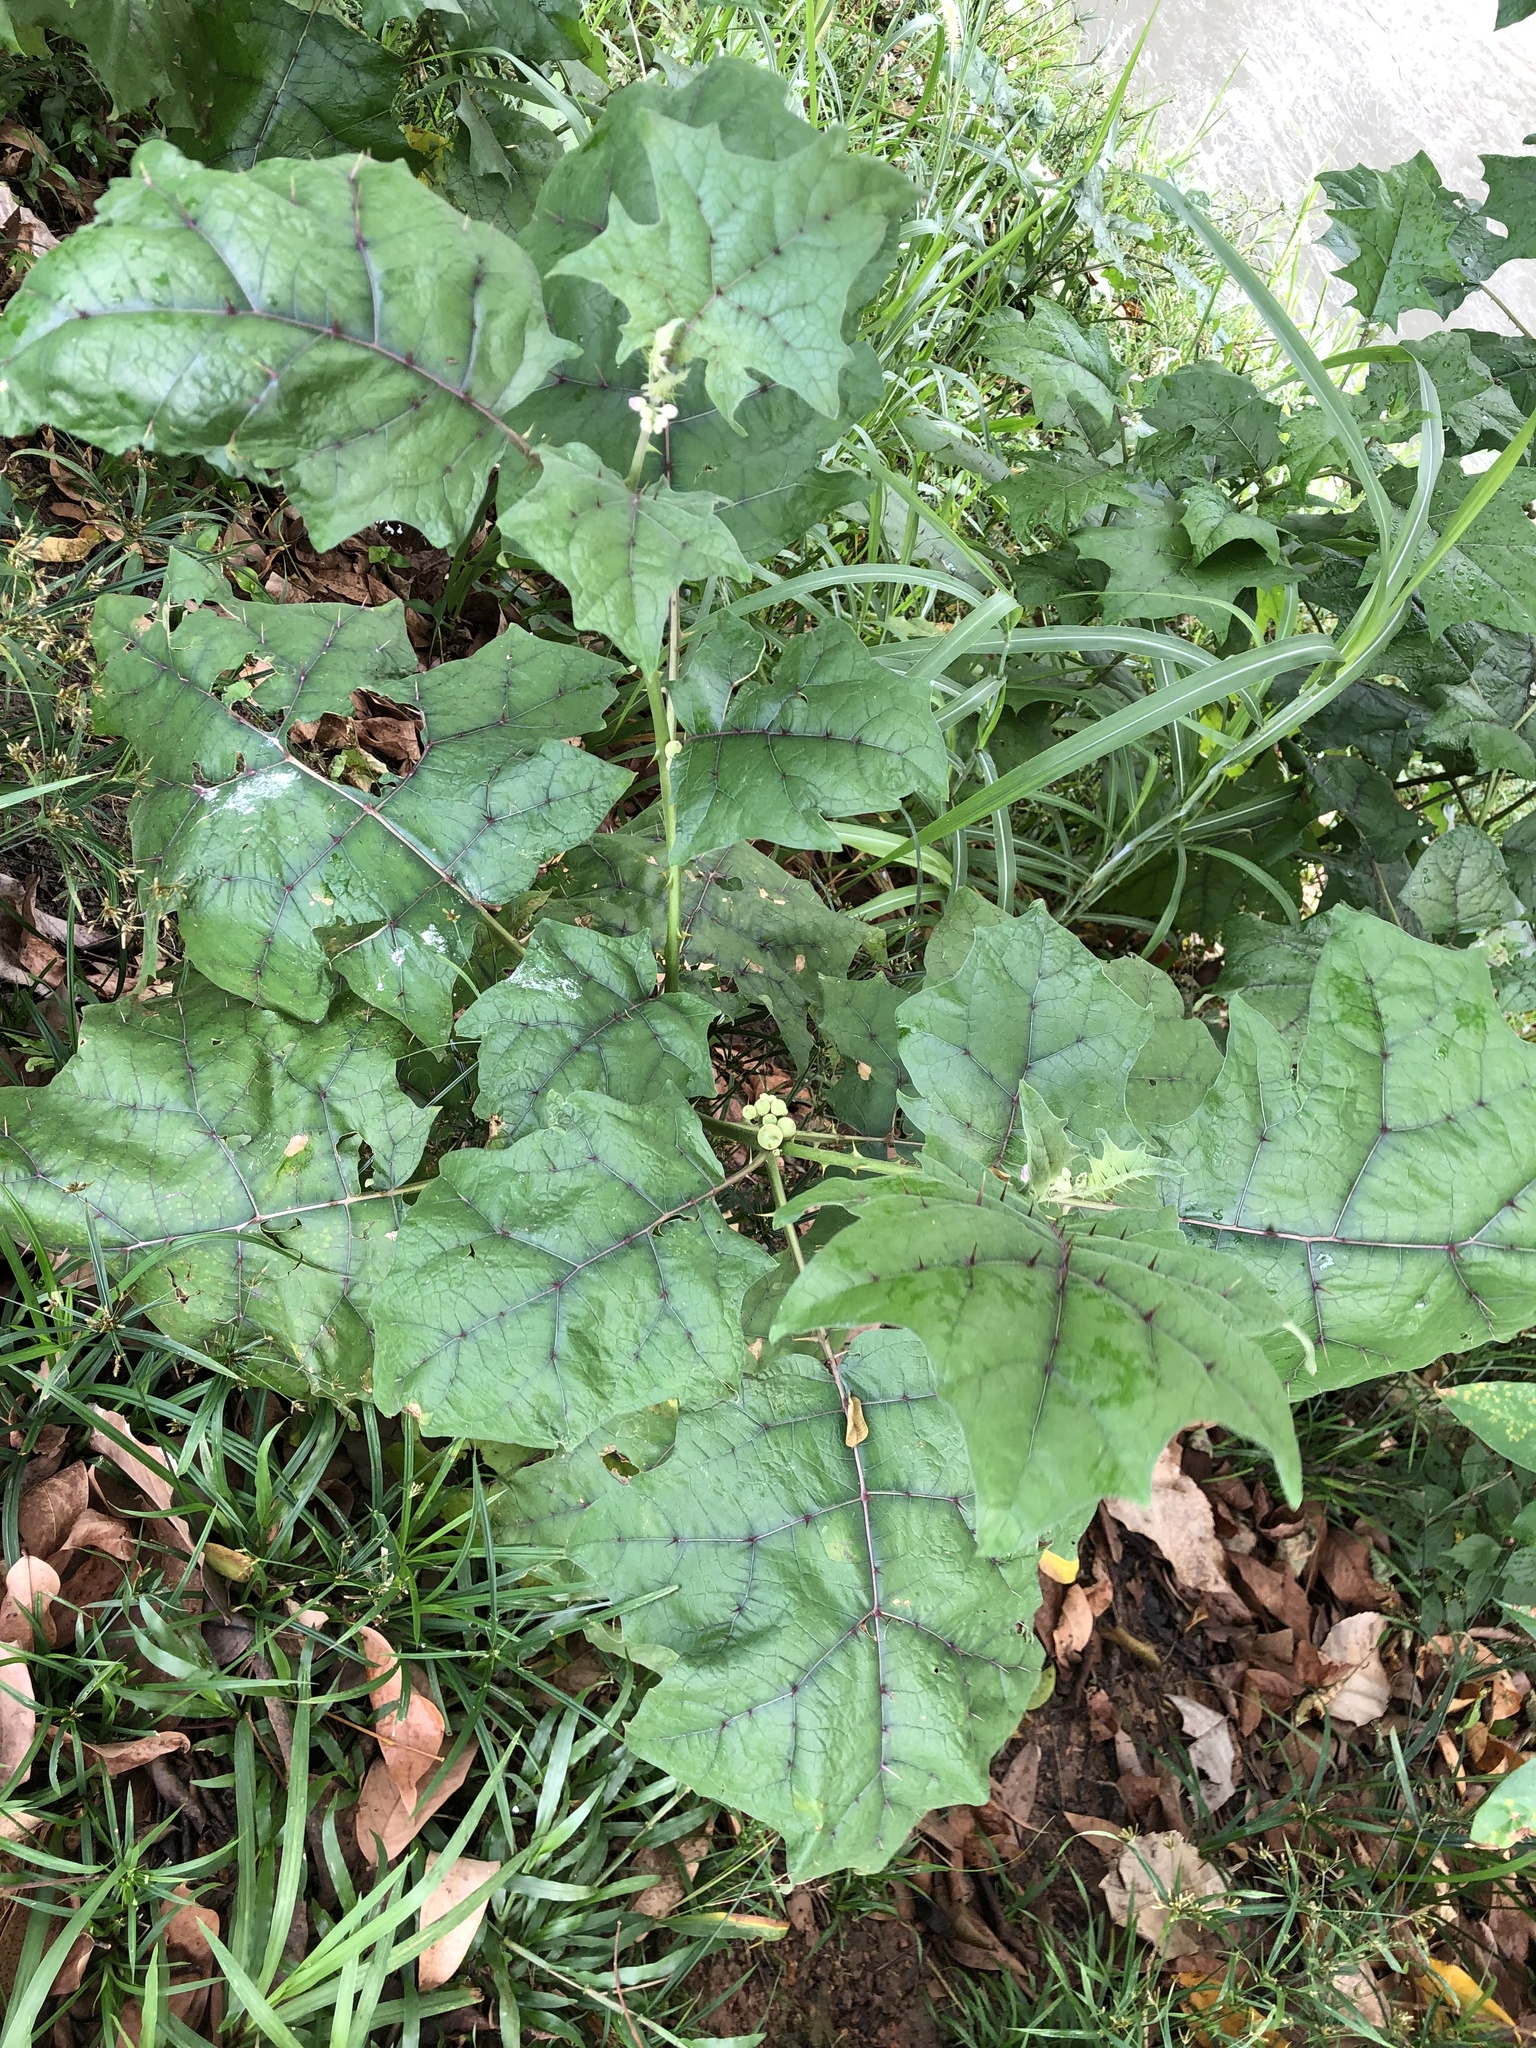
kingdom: Plantae
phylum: Tracheophyta
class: Magnoliopsida
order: Solanales
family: Solanaceae
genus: Solanum
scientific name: Solanum
